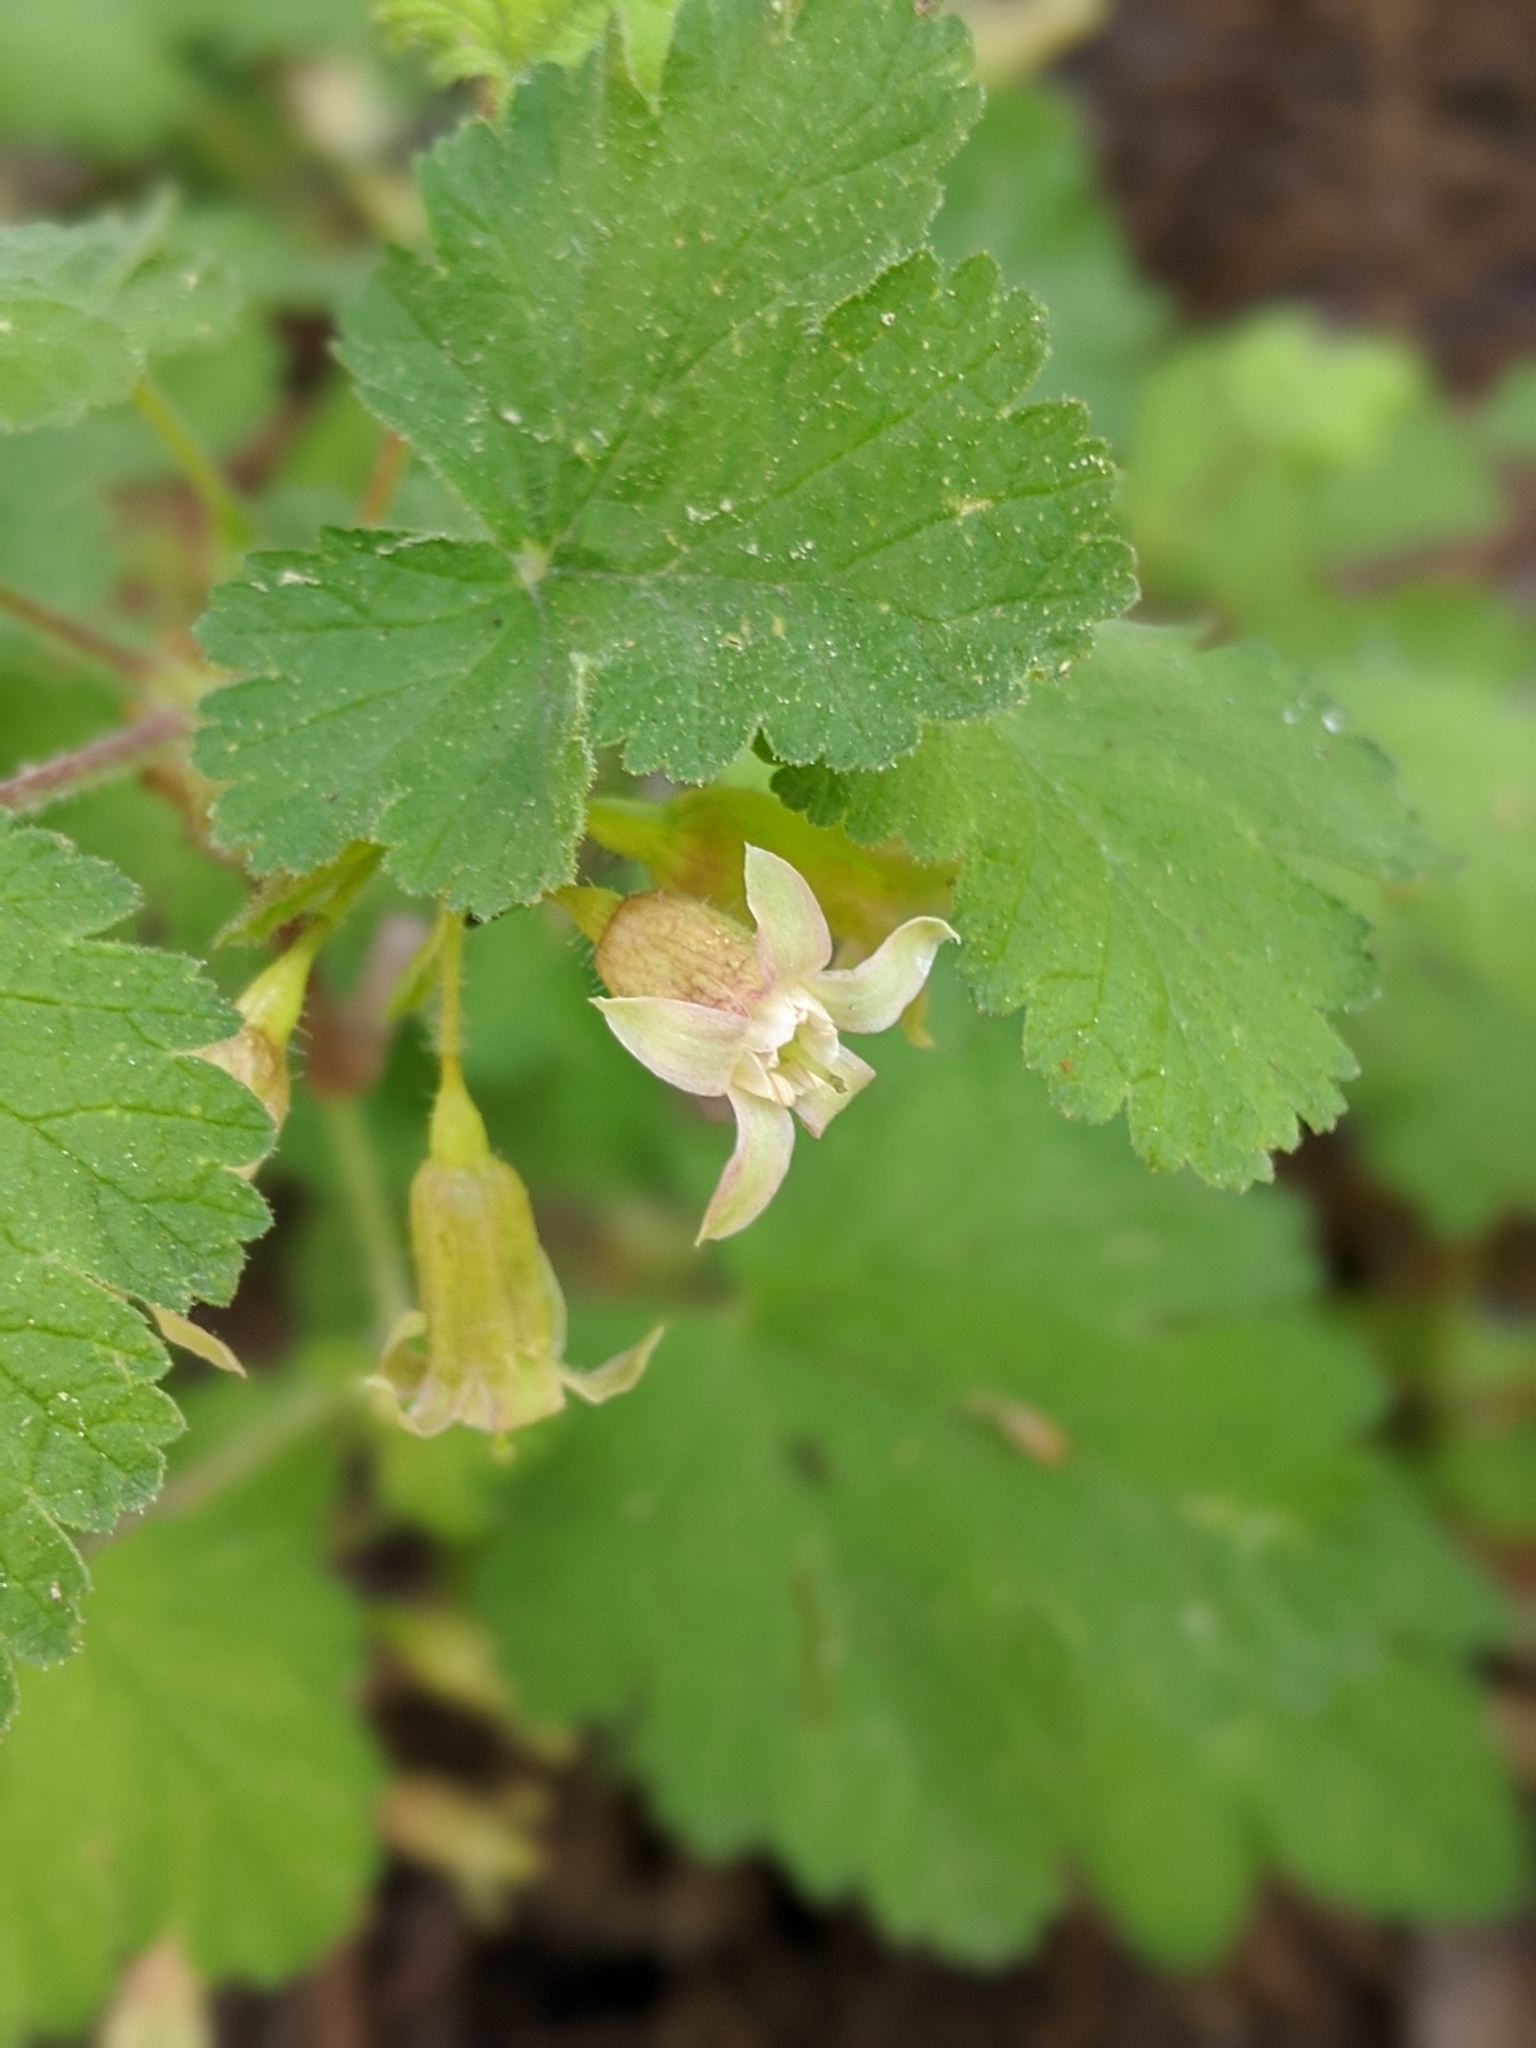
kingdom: Plantae
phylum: Tracheophyta
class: Magnoliopsida
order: Saxifragales
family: Grossulariaceae
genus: Ribes
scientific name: Ribes viscosissimum
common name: Sticky currant
